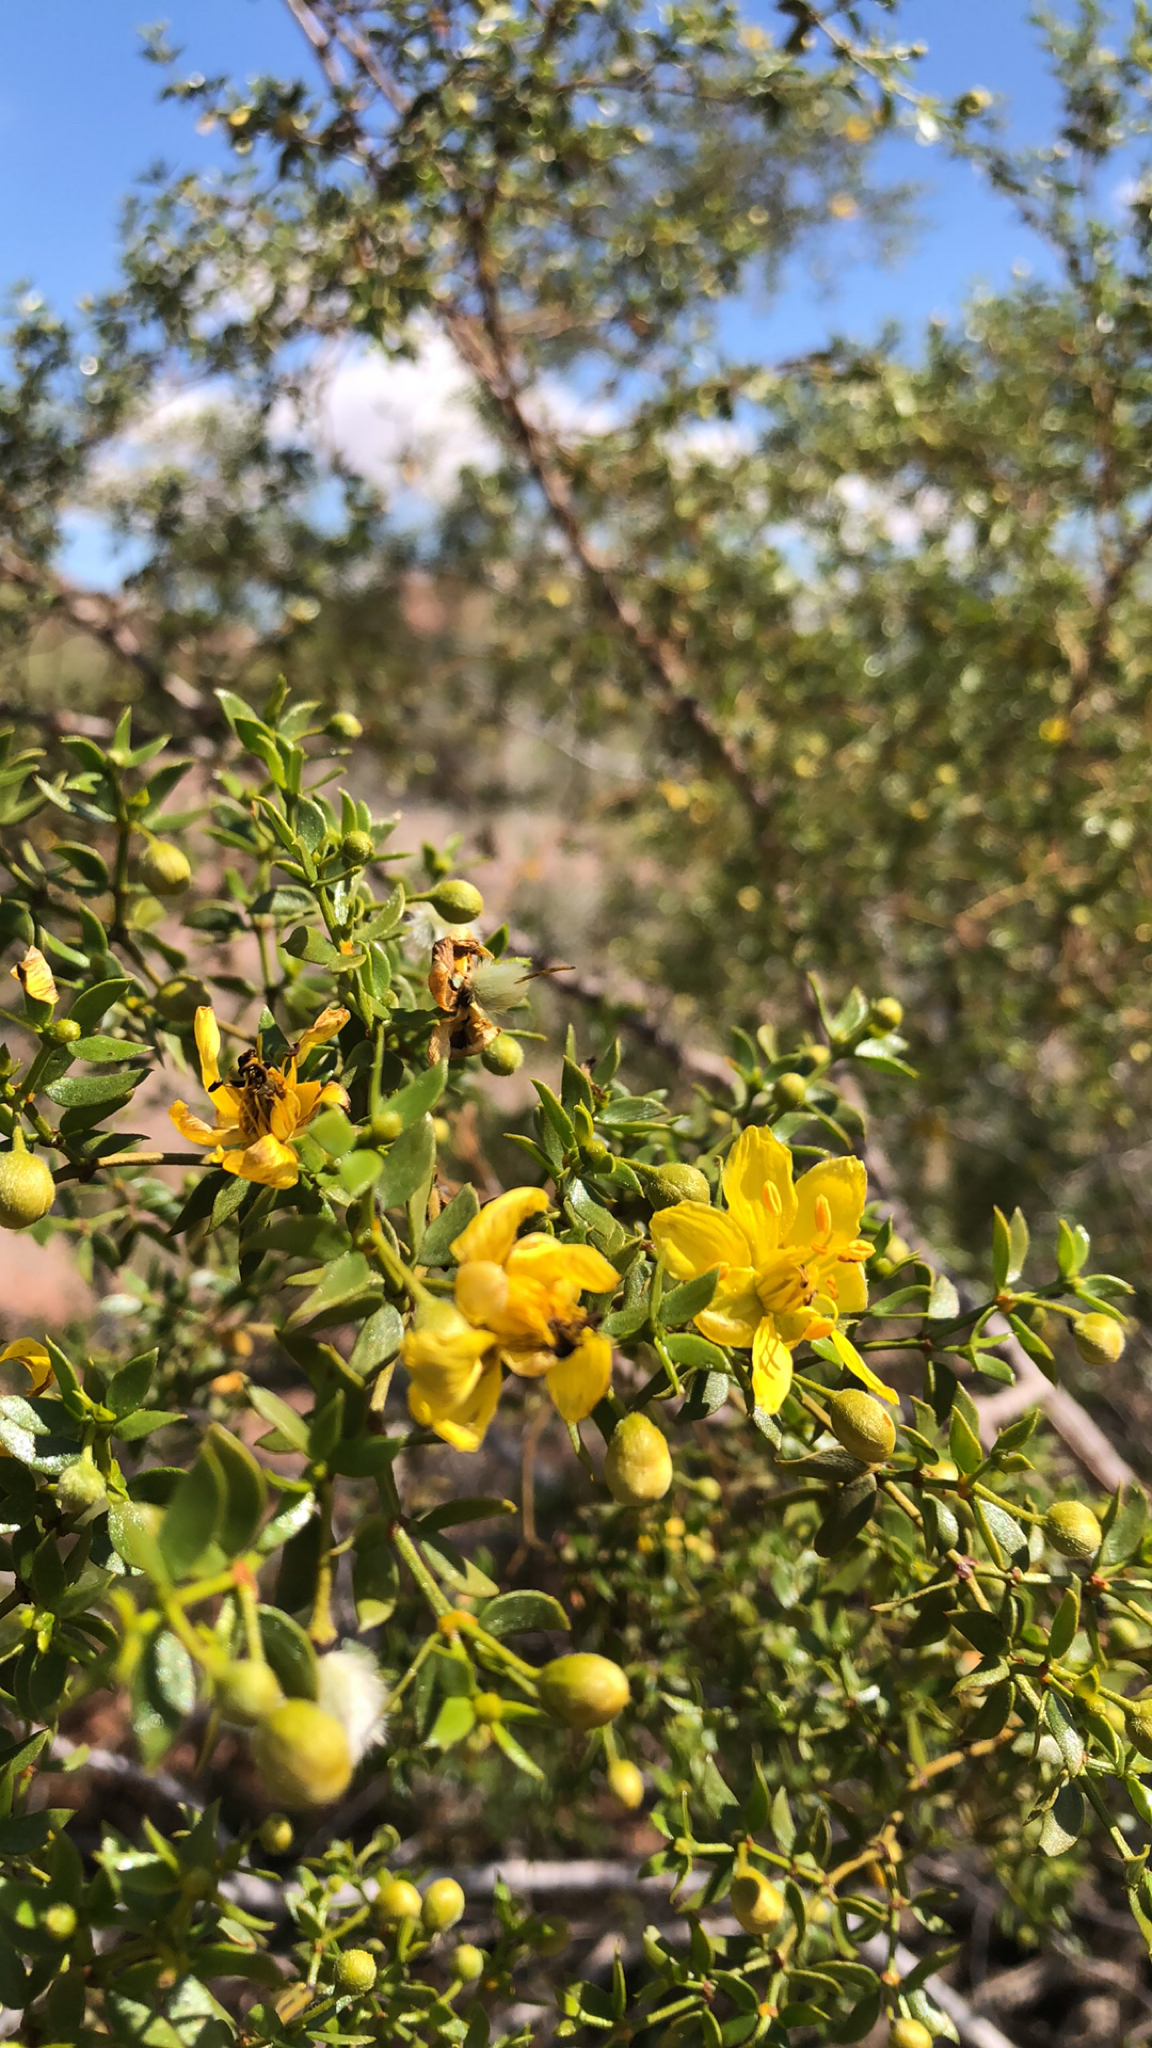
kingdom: Plantae
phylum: Tracheophyta
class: Magnoliopsida
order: Zygophyllales
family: Zygophyllaceae
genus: Larrea
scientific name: Larrea tridentata
